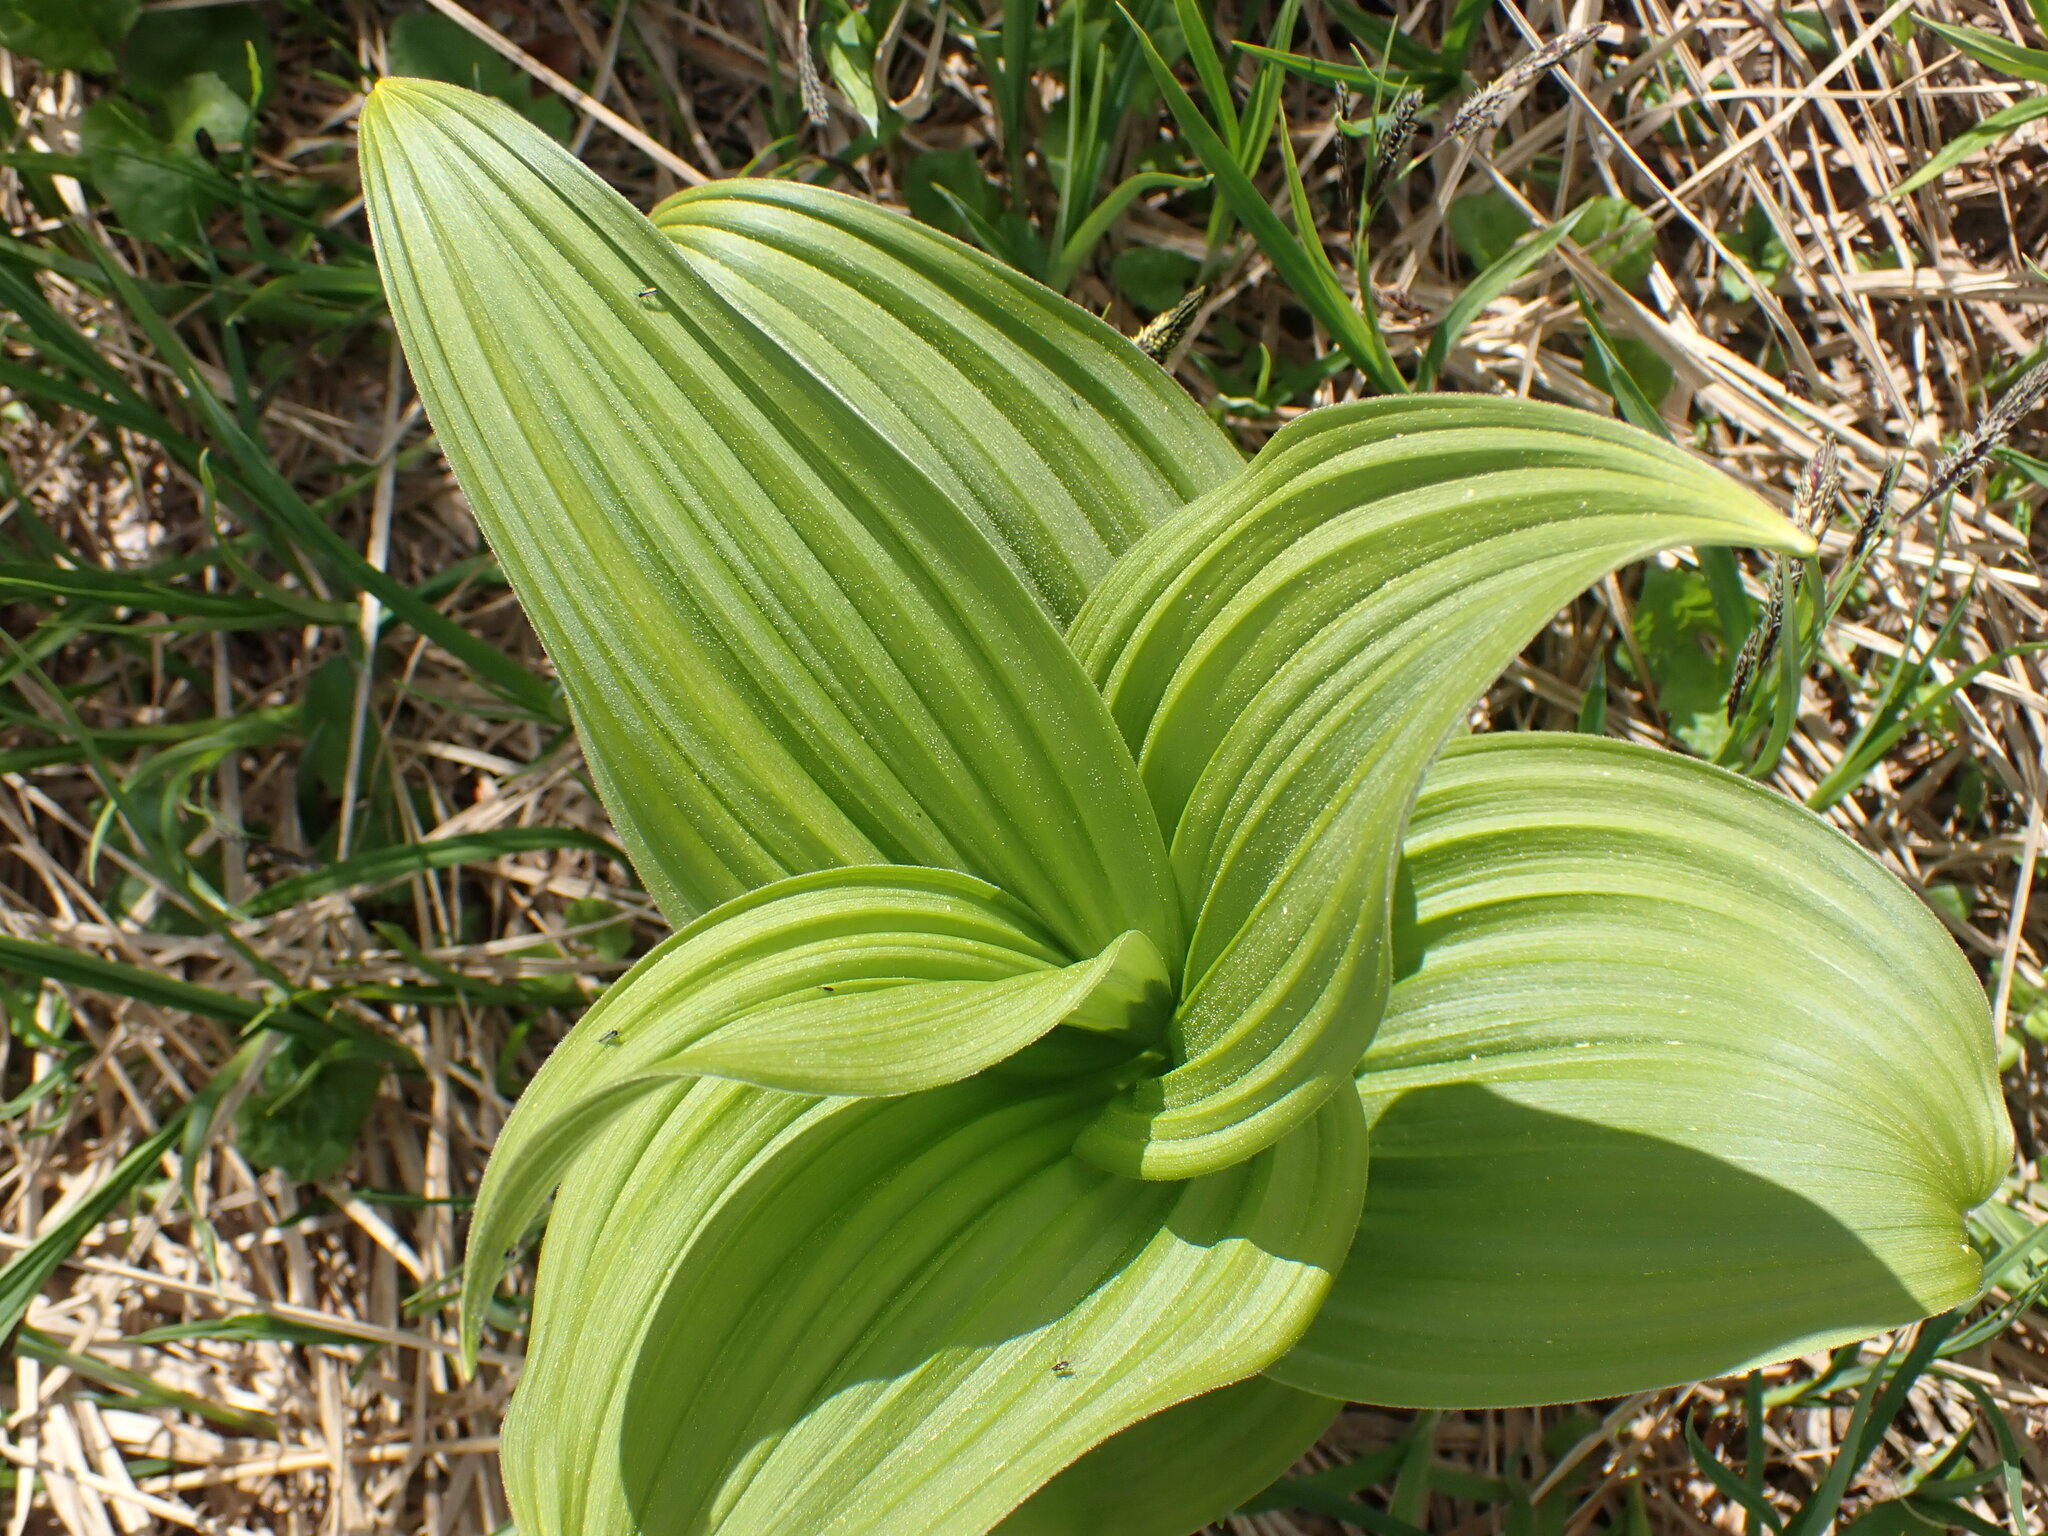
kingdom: Plantae
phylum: Tracheophyta
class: Liliopsida
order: Liliales
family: Melanthiaceae
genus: Veratrum
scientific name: Veratrum viride
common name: American false hellebore
